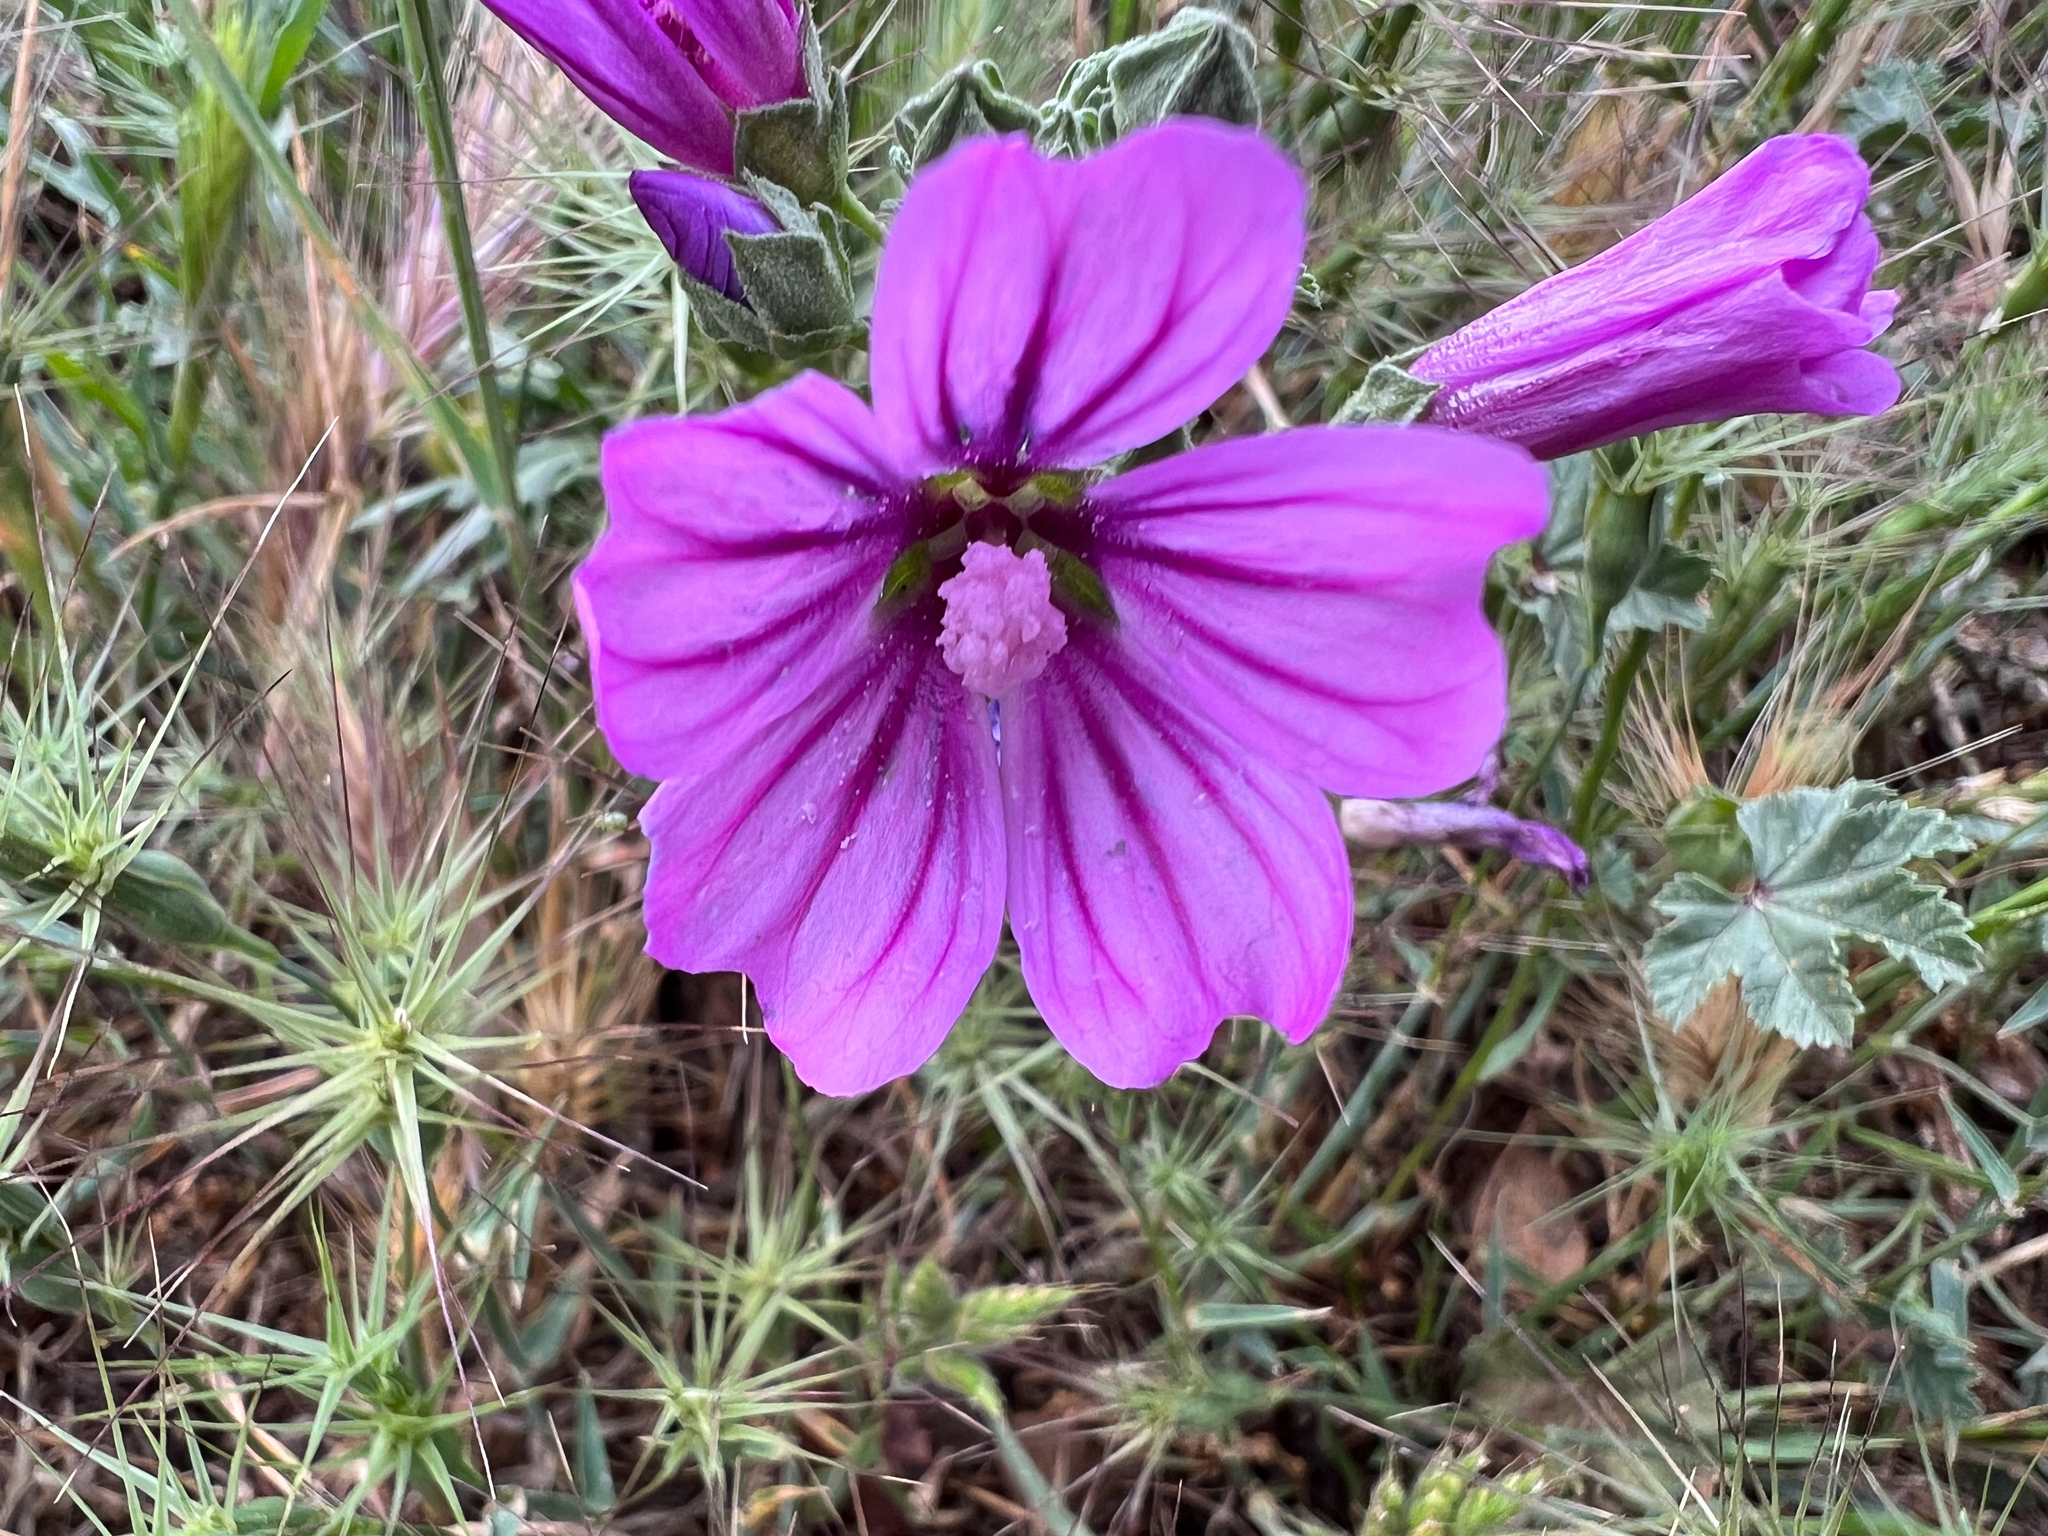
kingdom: Plantae
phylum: Tracheophyta
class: Magnoliopsida
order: Malvales
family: Malvaceae
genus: Malva
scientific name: Malva sylvestris
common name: Common mallow
